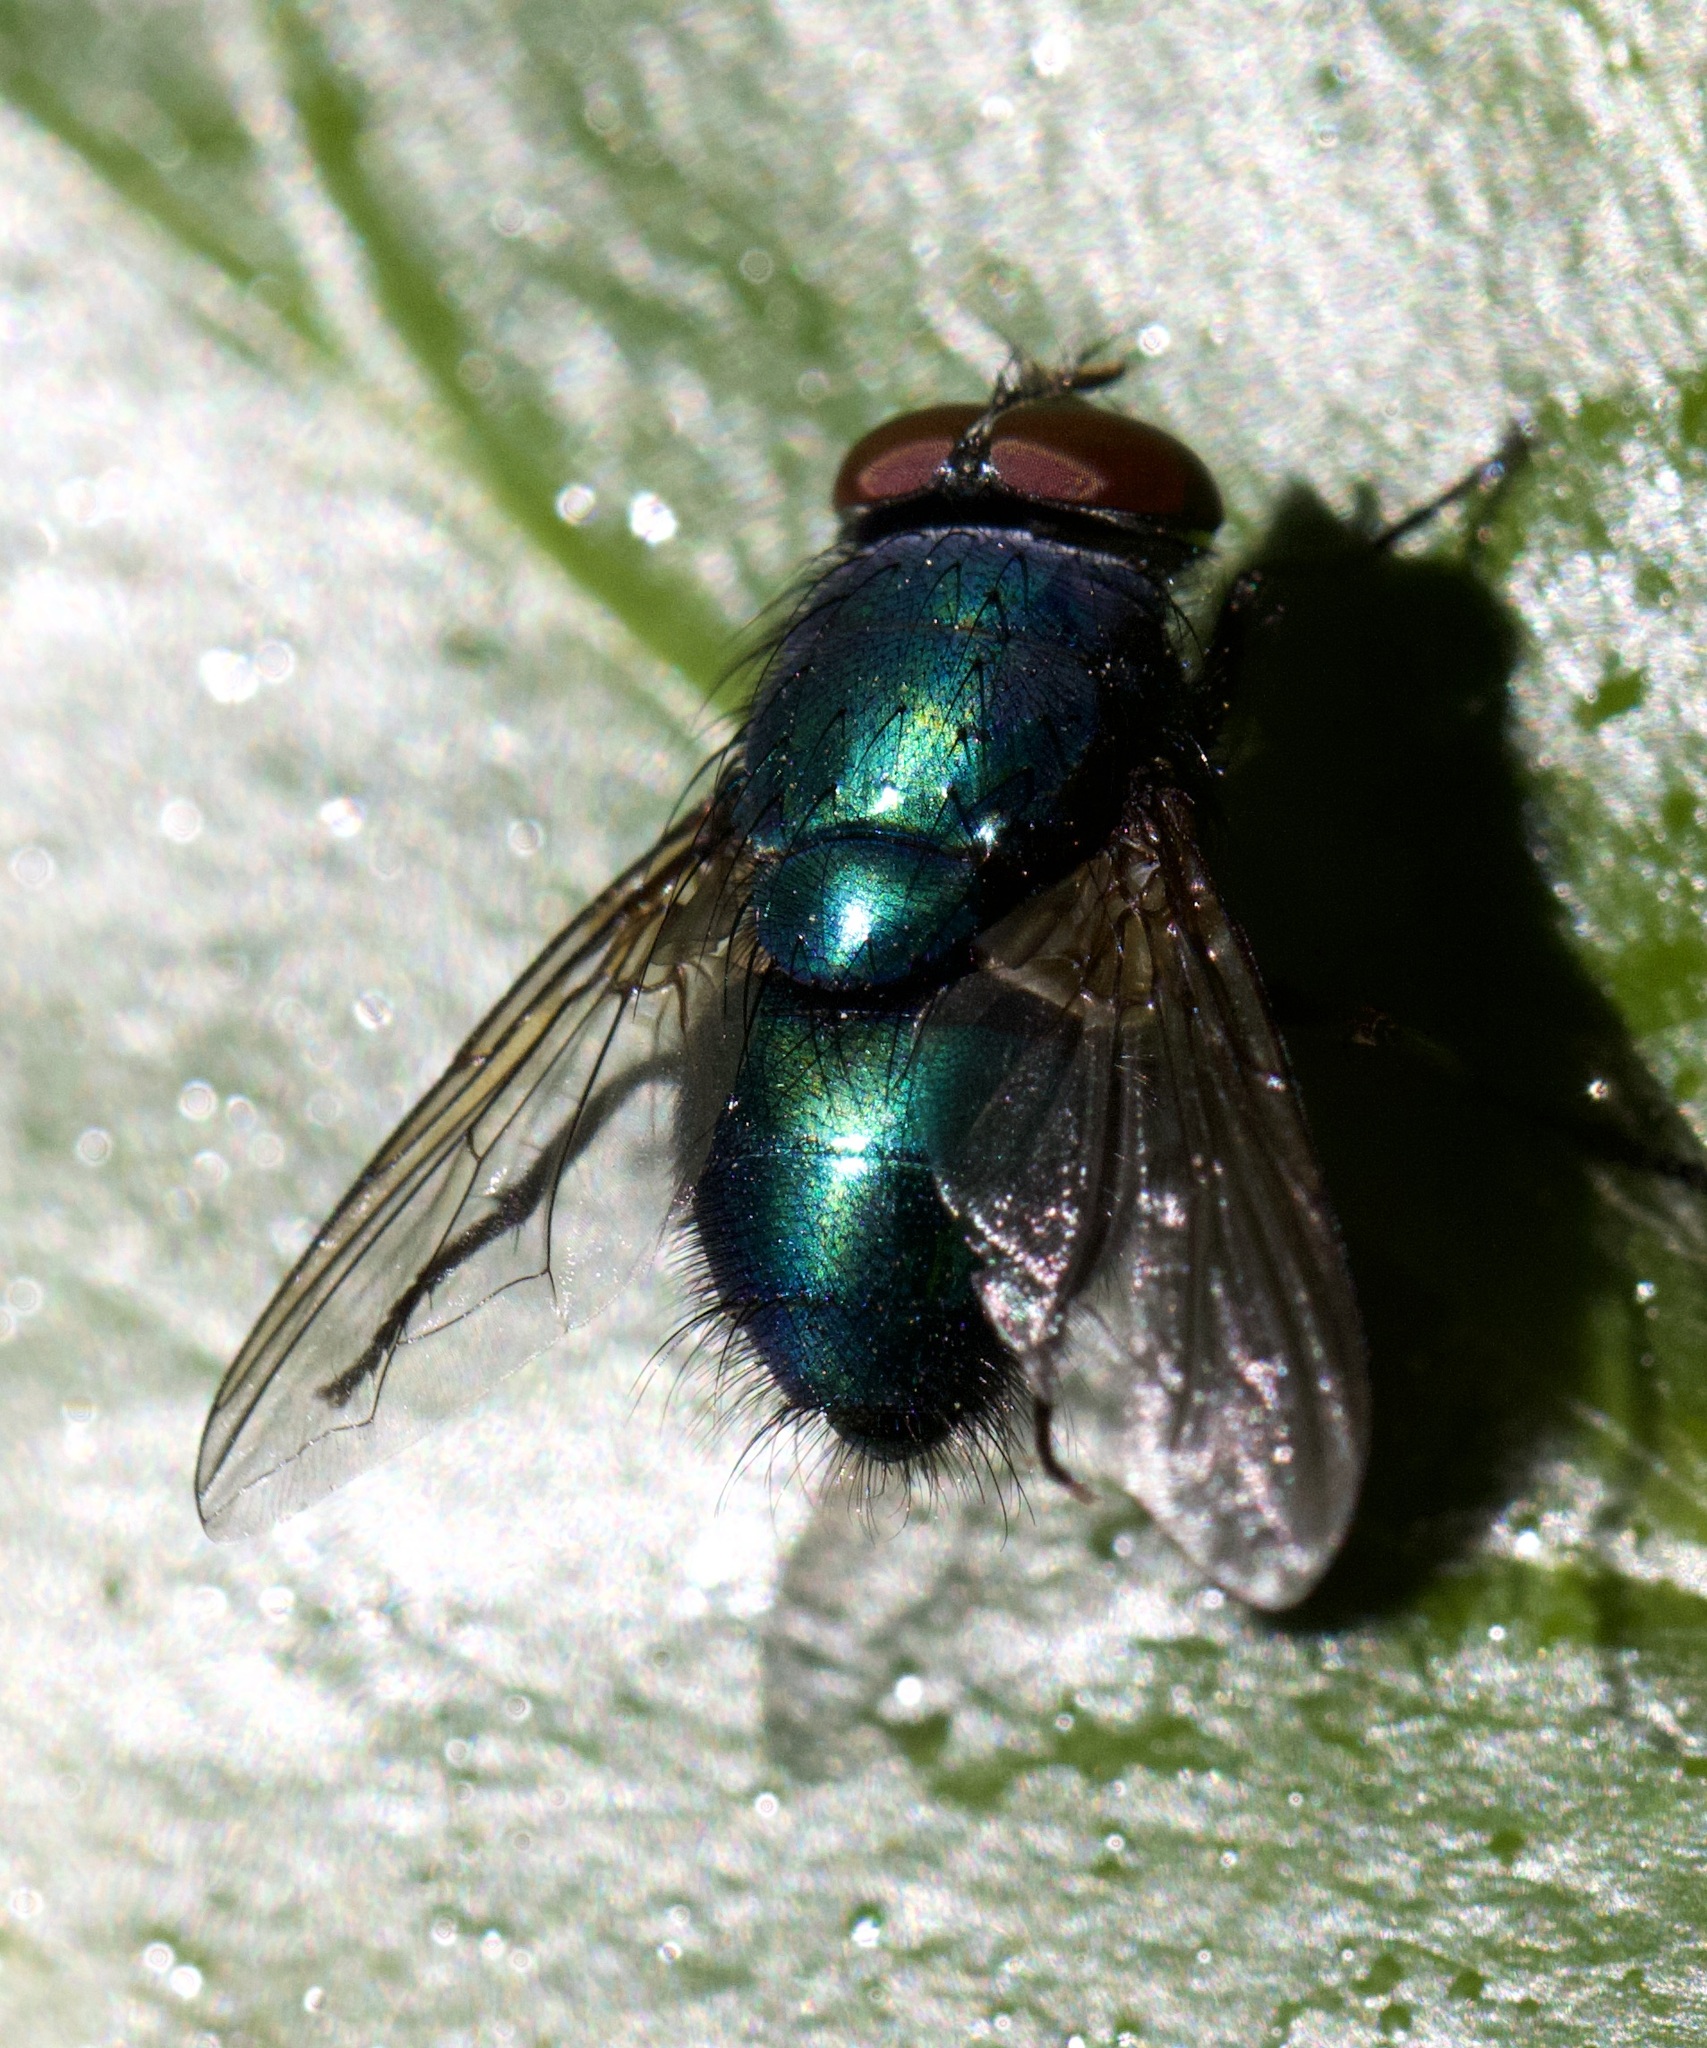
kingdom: Animalia
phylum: Arthropoda
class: Insecta
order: Diptera
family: Calliphoridae
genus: Lucilia
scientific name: Lucilia
